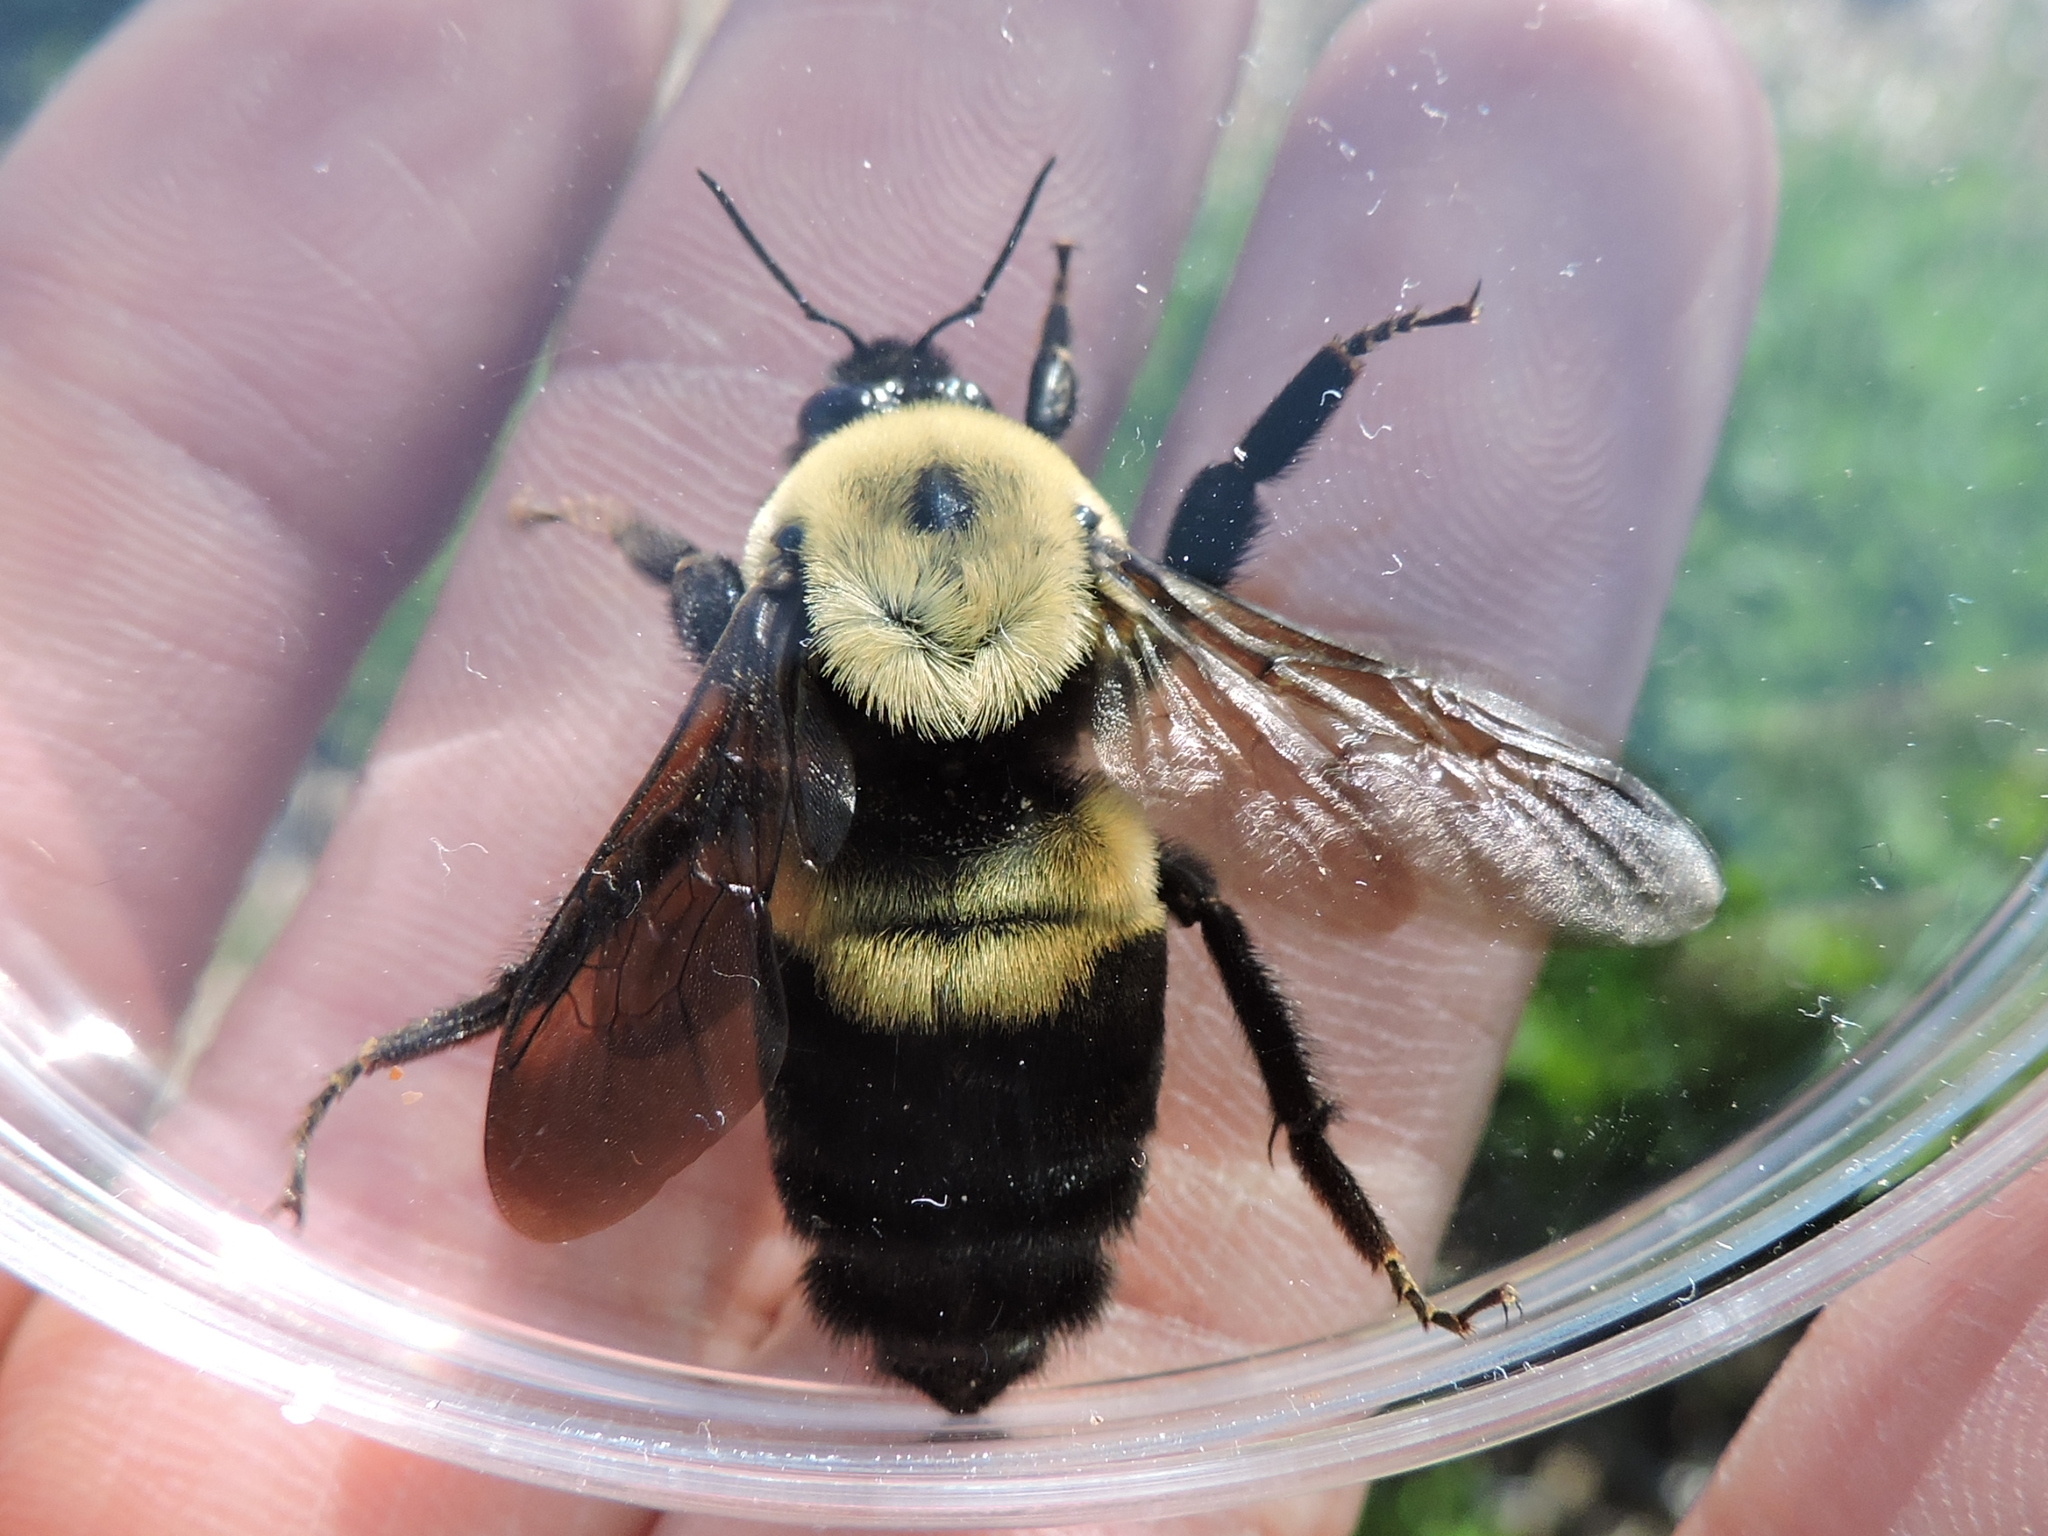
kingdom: Animalia
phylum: Arthropoda
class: Insecta
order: Hymenoptera
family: Apidae
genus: Bombus
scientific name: Bombus griseocollis
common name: Brown-belted bumble bee
